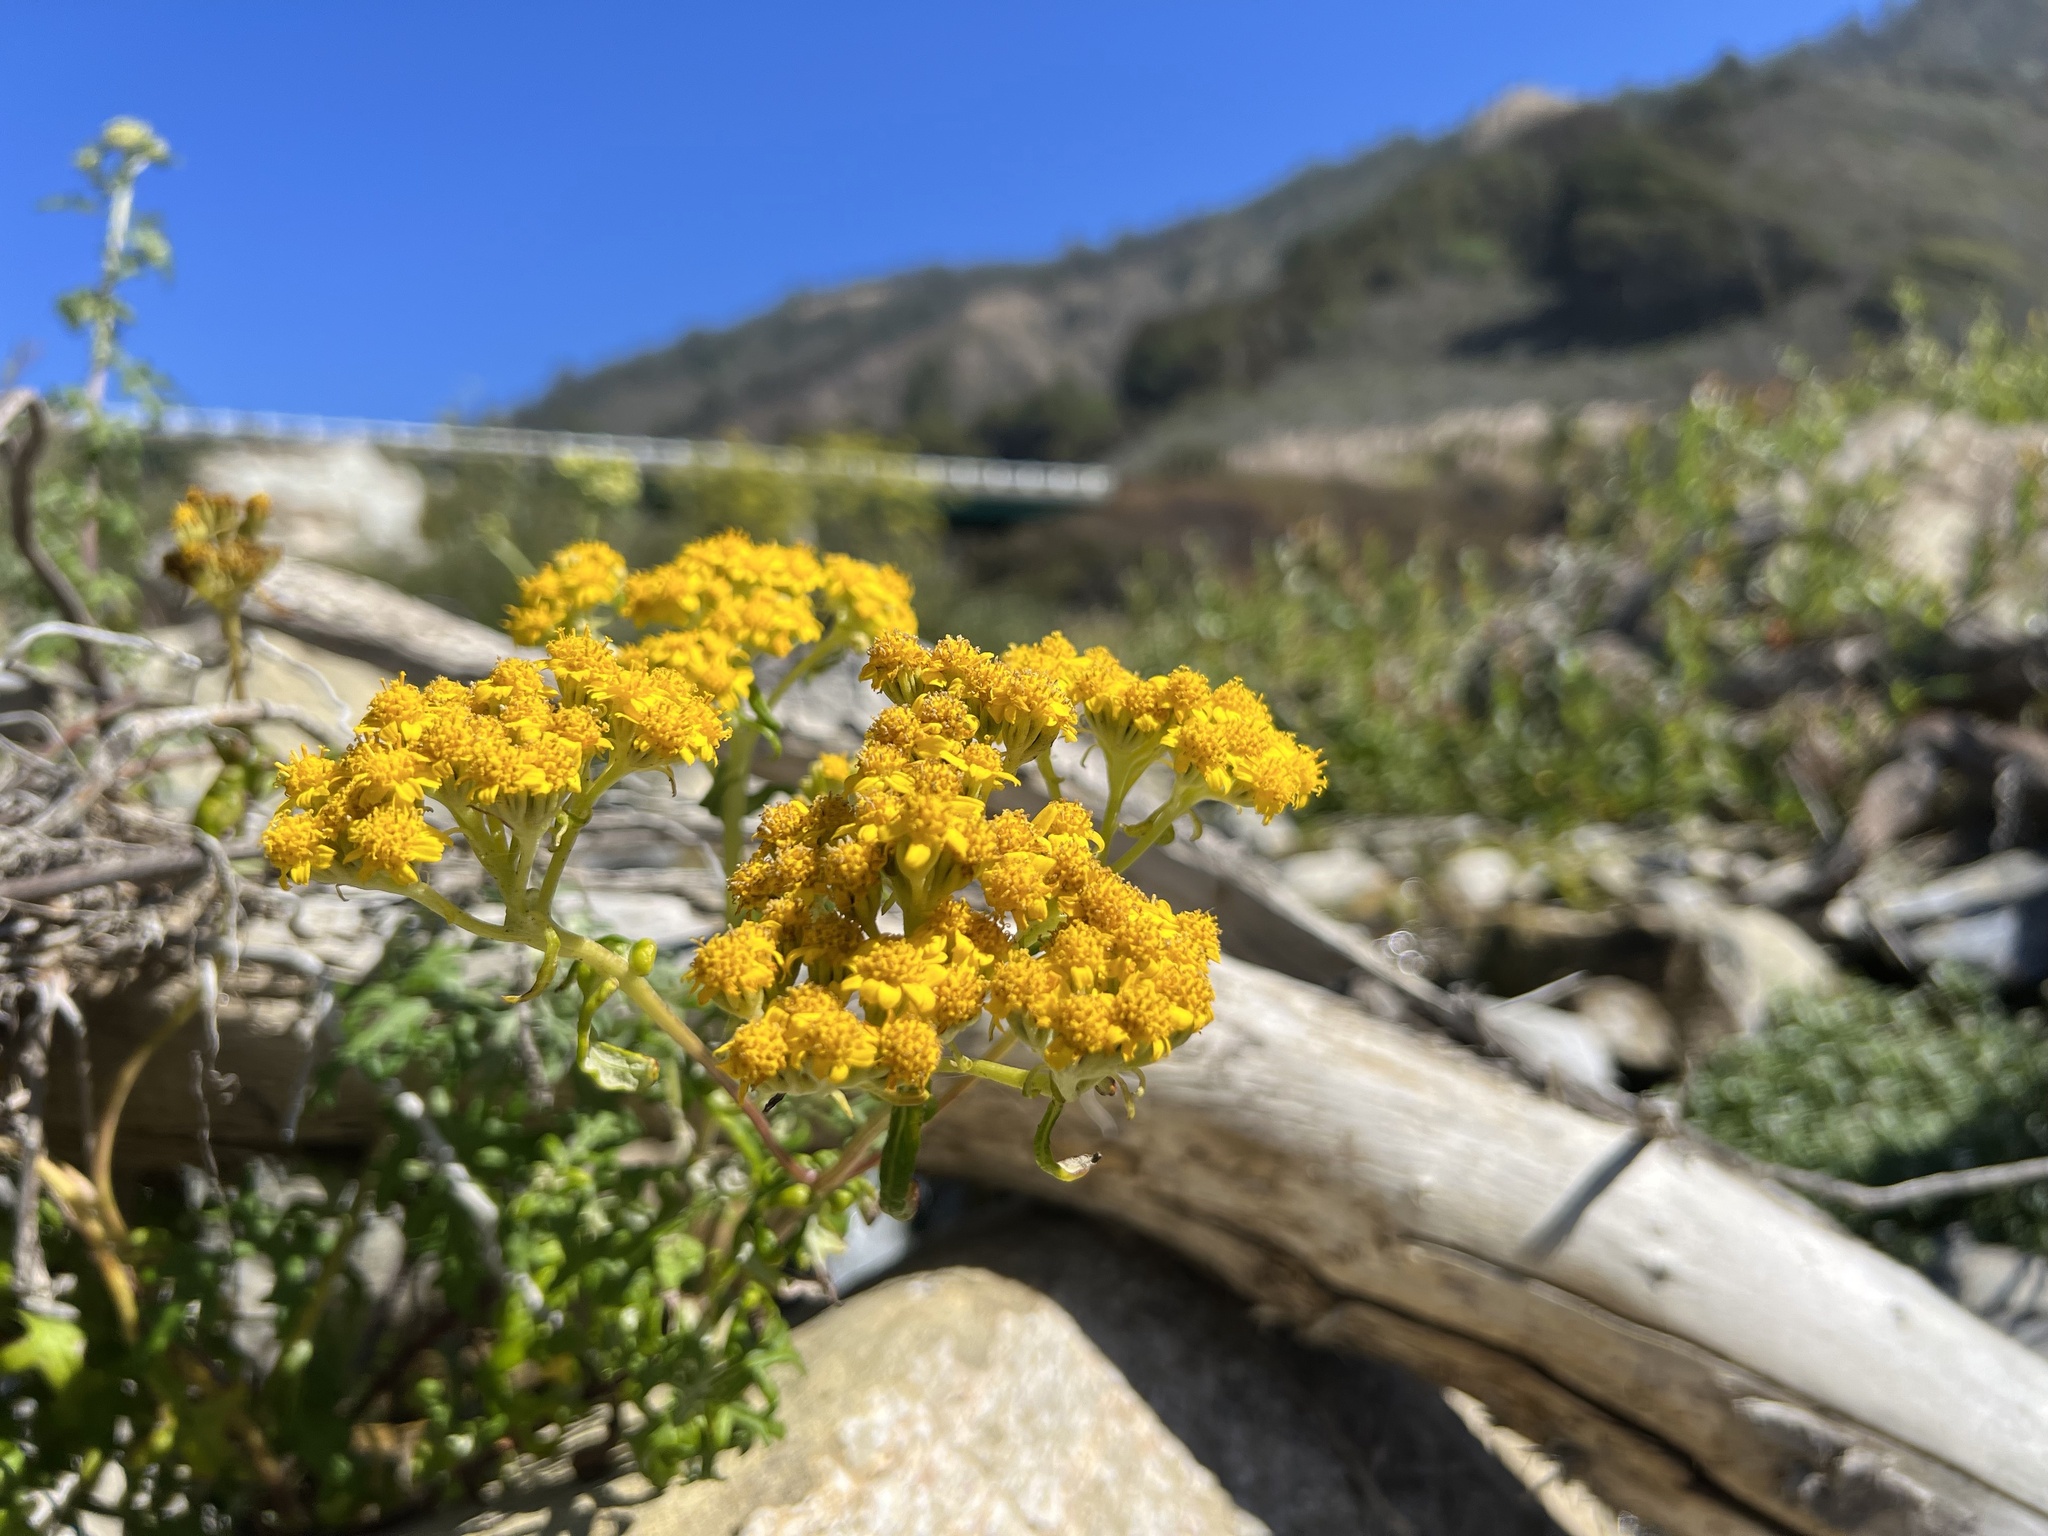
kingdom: Plantae
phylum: Tracheophyta
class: Magnoliopsida
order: Asterales
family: Asteraceae
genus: Eriophyllum
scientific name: Eriophyllum staechadifolium
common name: Lizardtail
